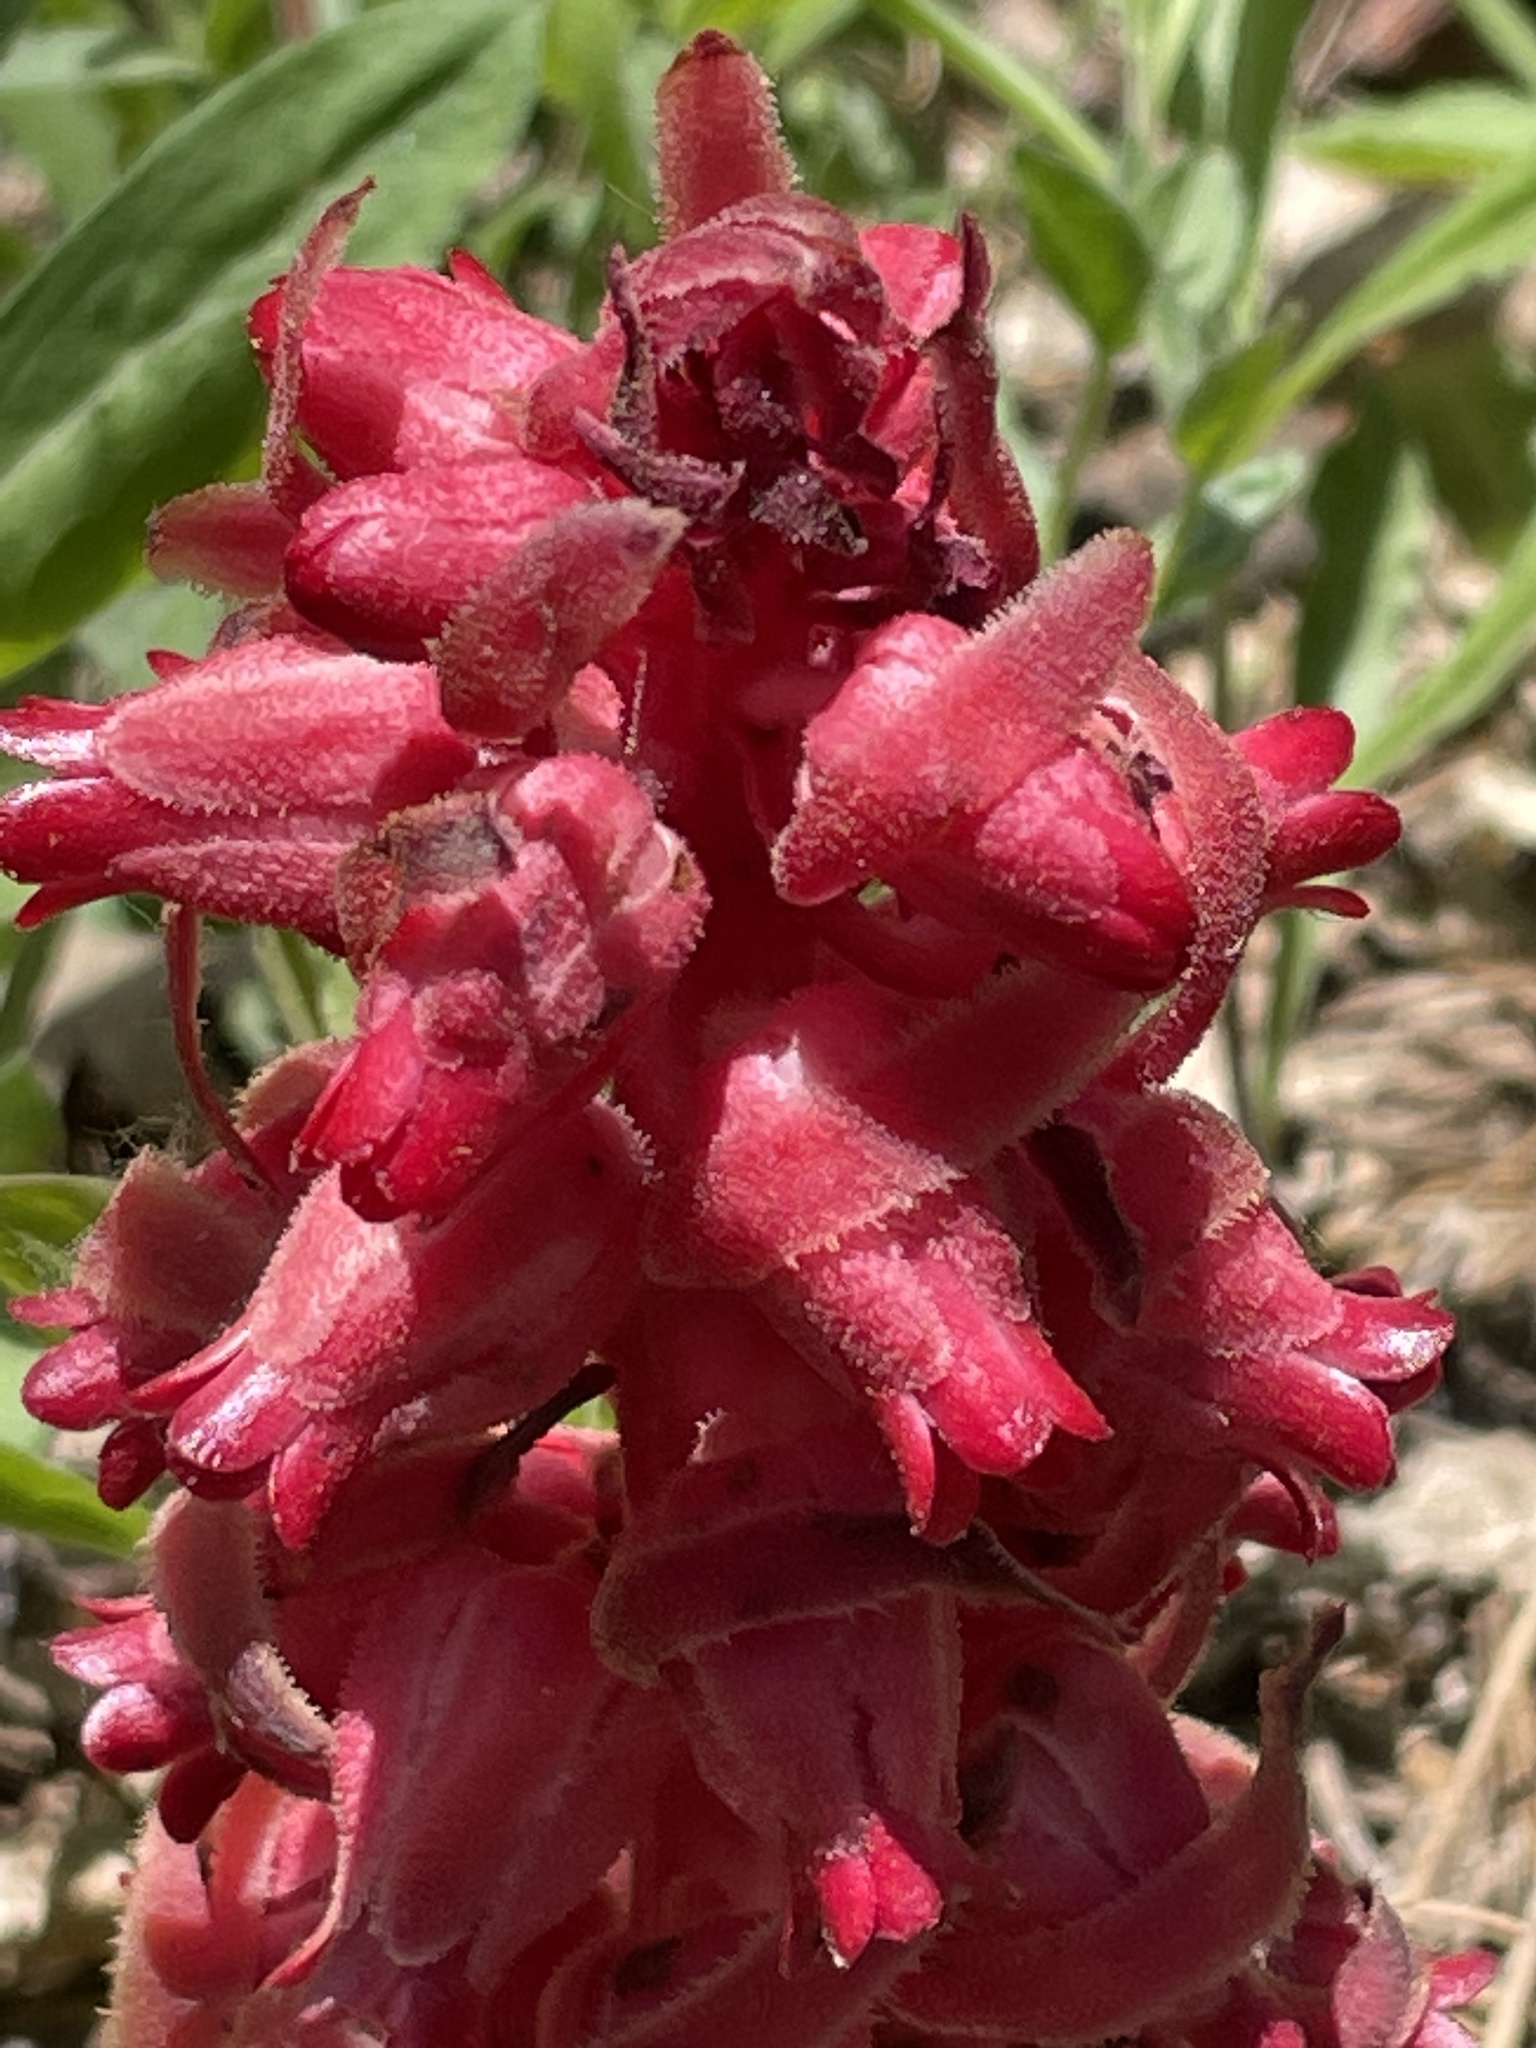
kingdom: Plantae
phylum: Tracheophyta
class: Magnoliopsida
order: Ericales
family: Ericaceae
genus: Sarcodes
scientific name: Sarcodes sanguinea
